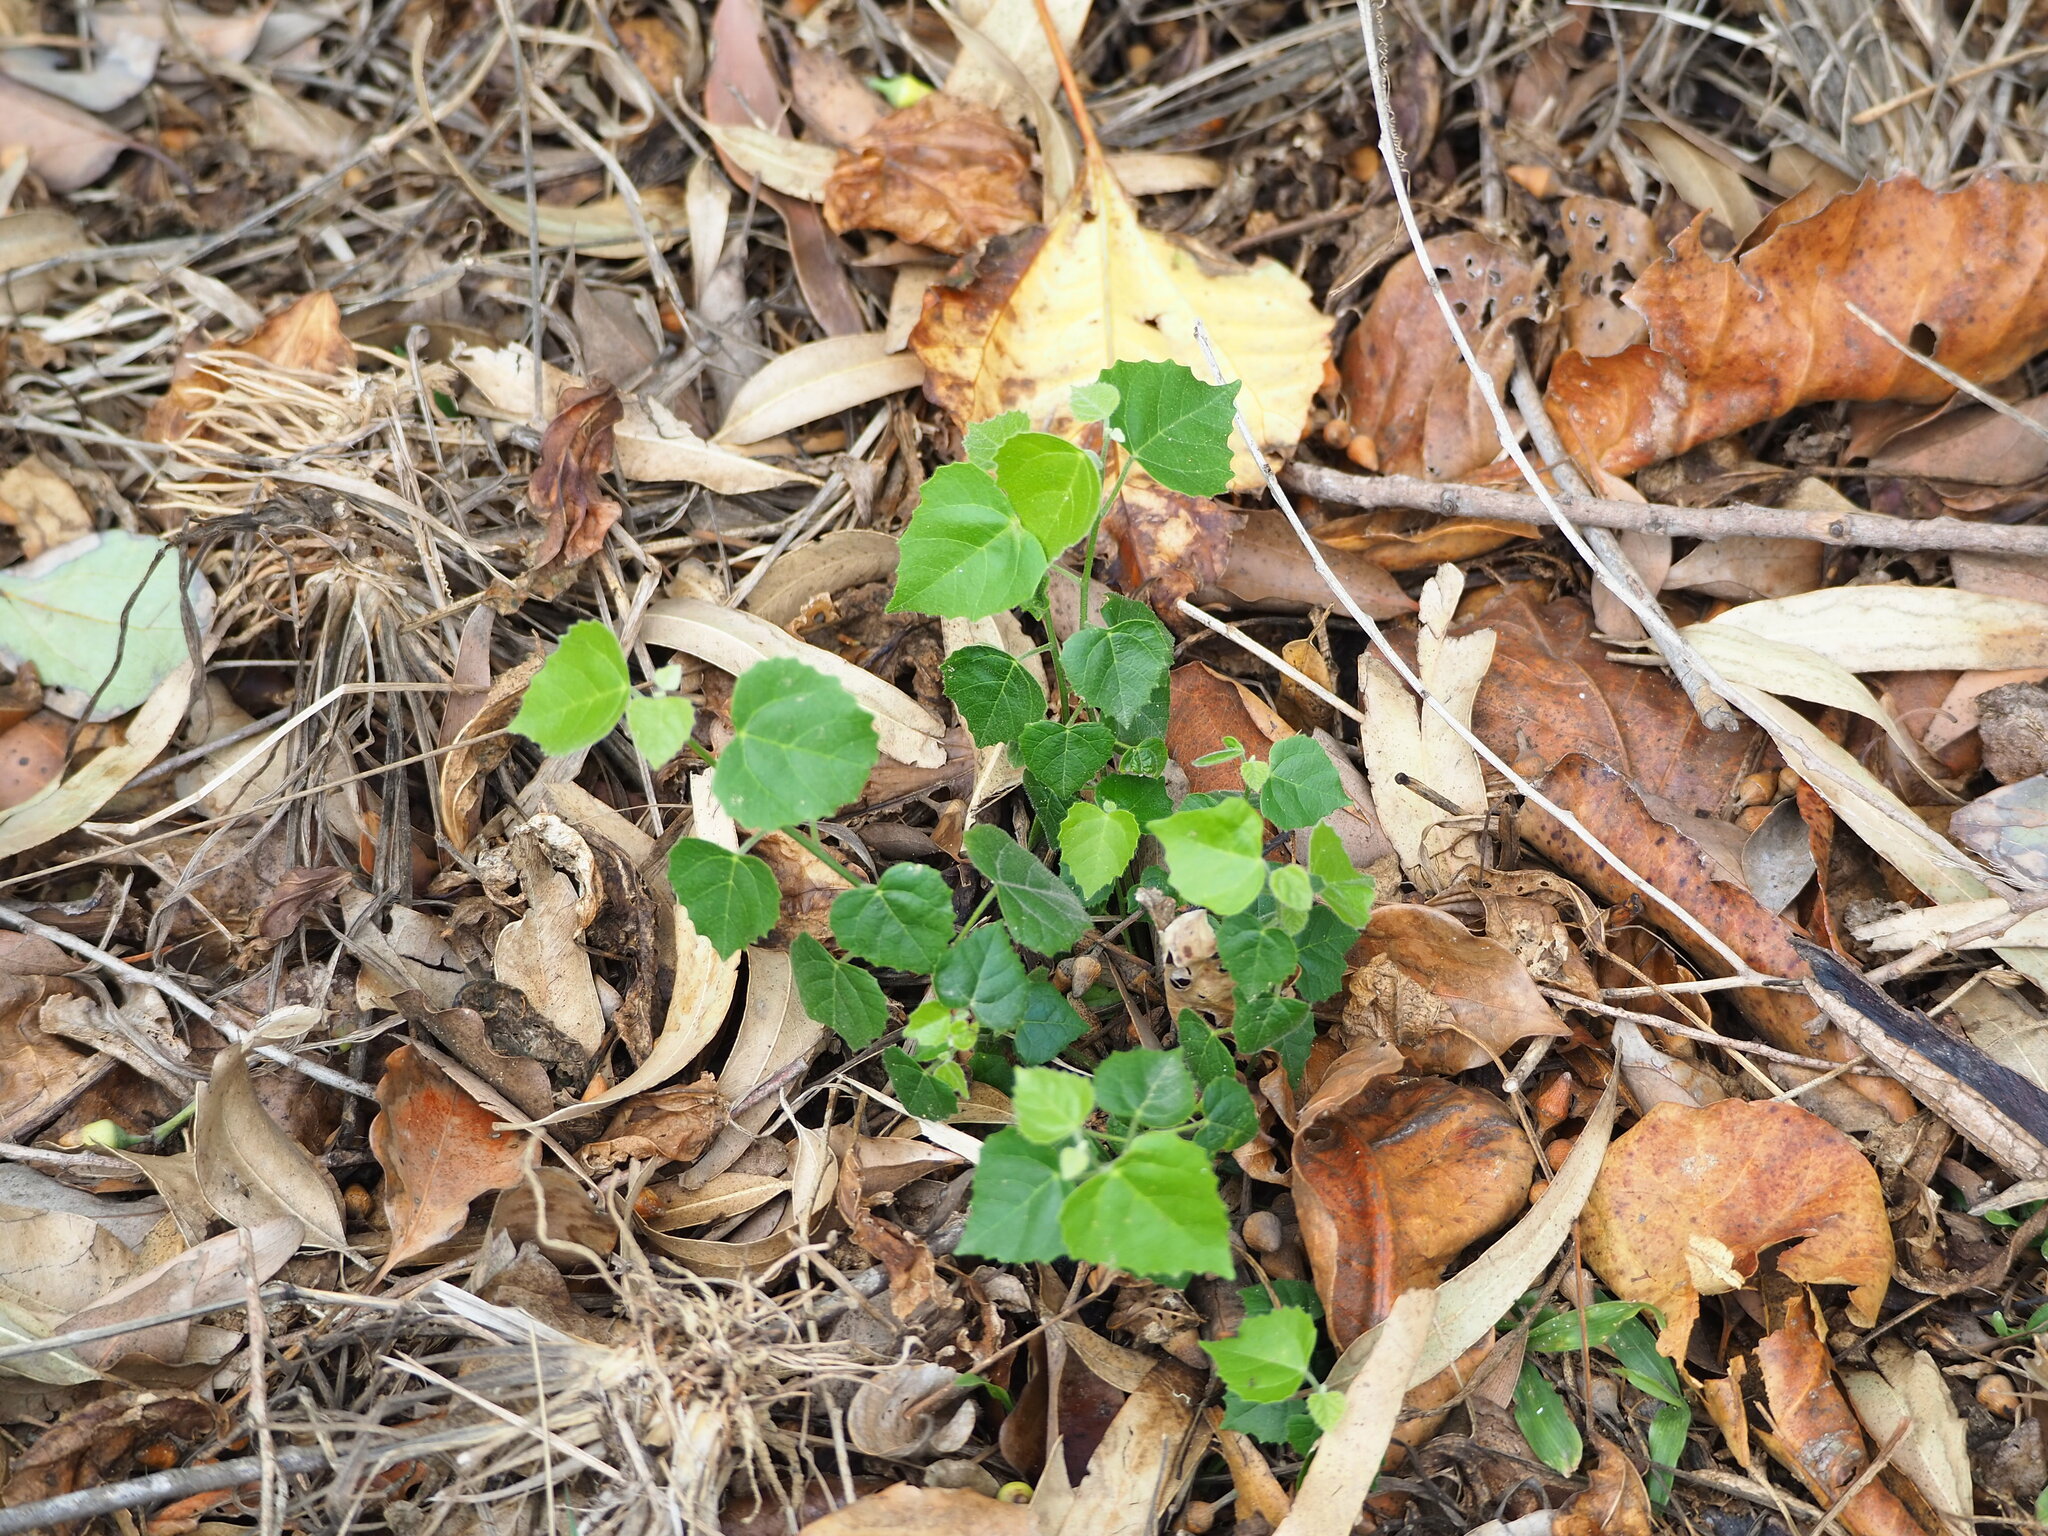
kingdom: Plantae
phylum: Tracheophyta
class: Magnoliopsida
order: Malpighiales
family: Euphorbiaceae
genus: Mallotus
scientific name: Mallotus repandus
